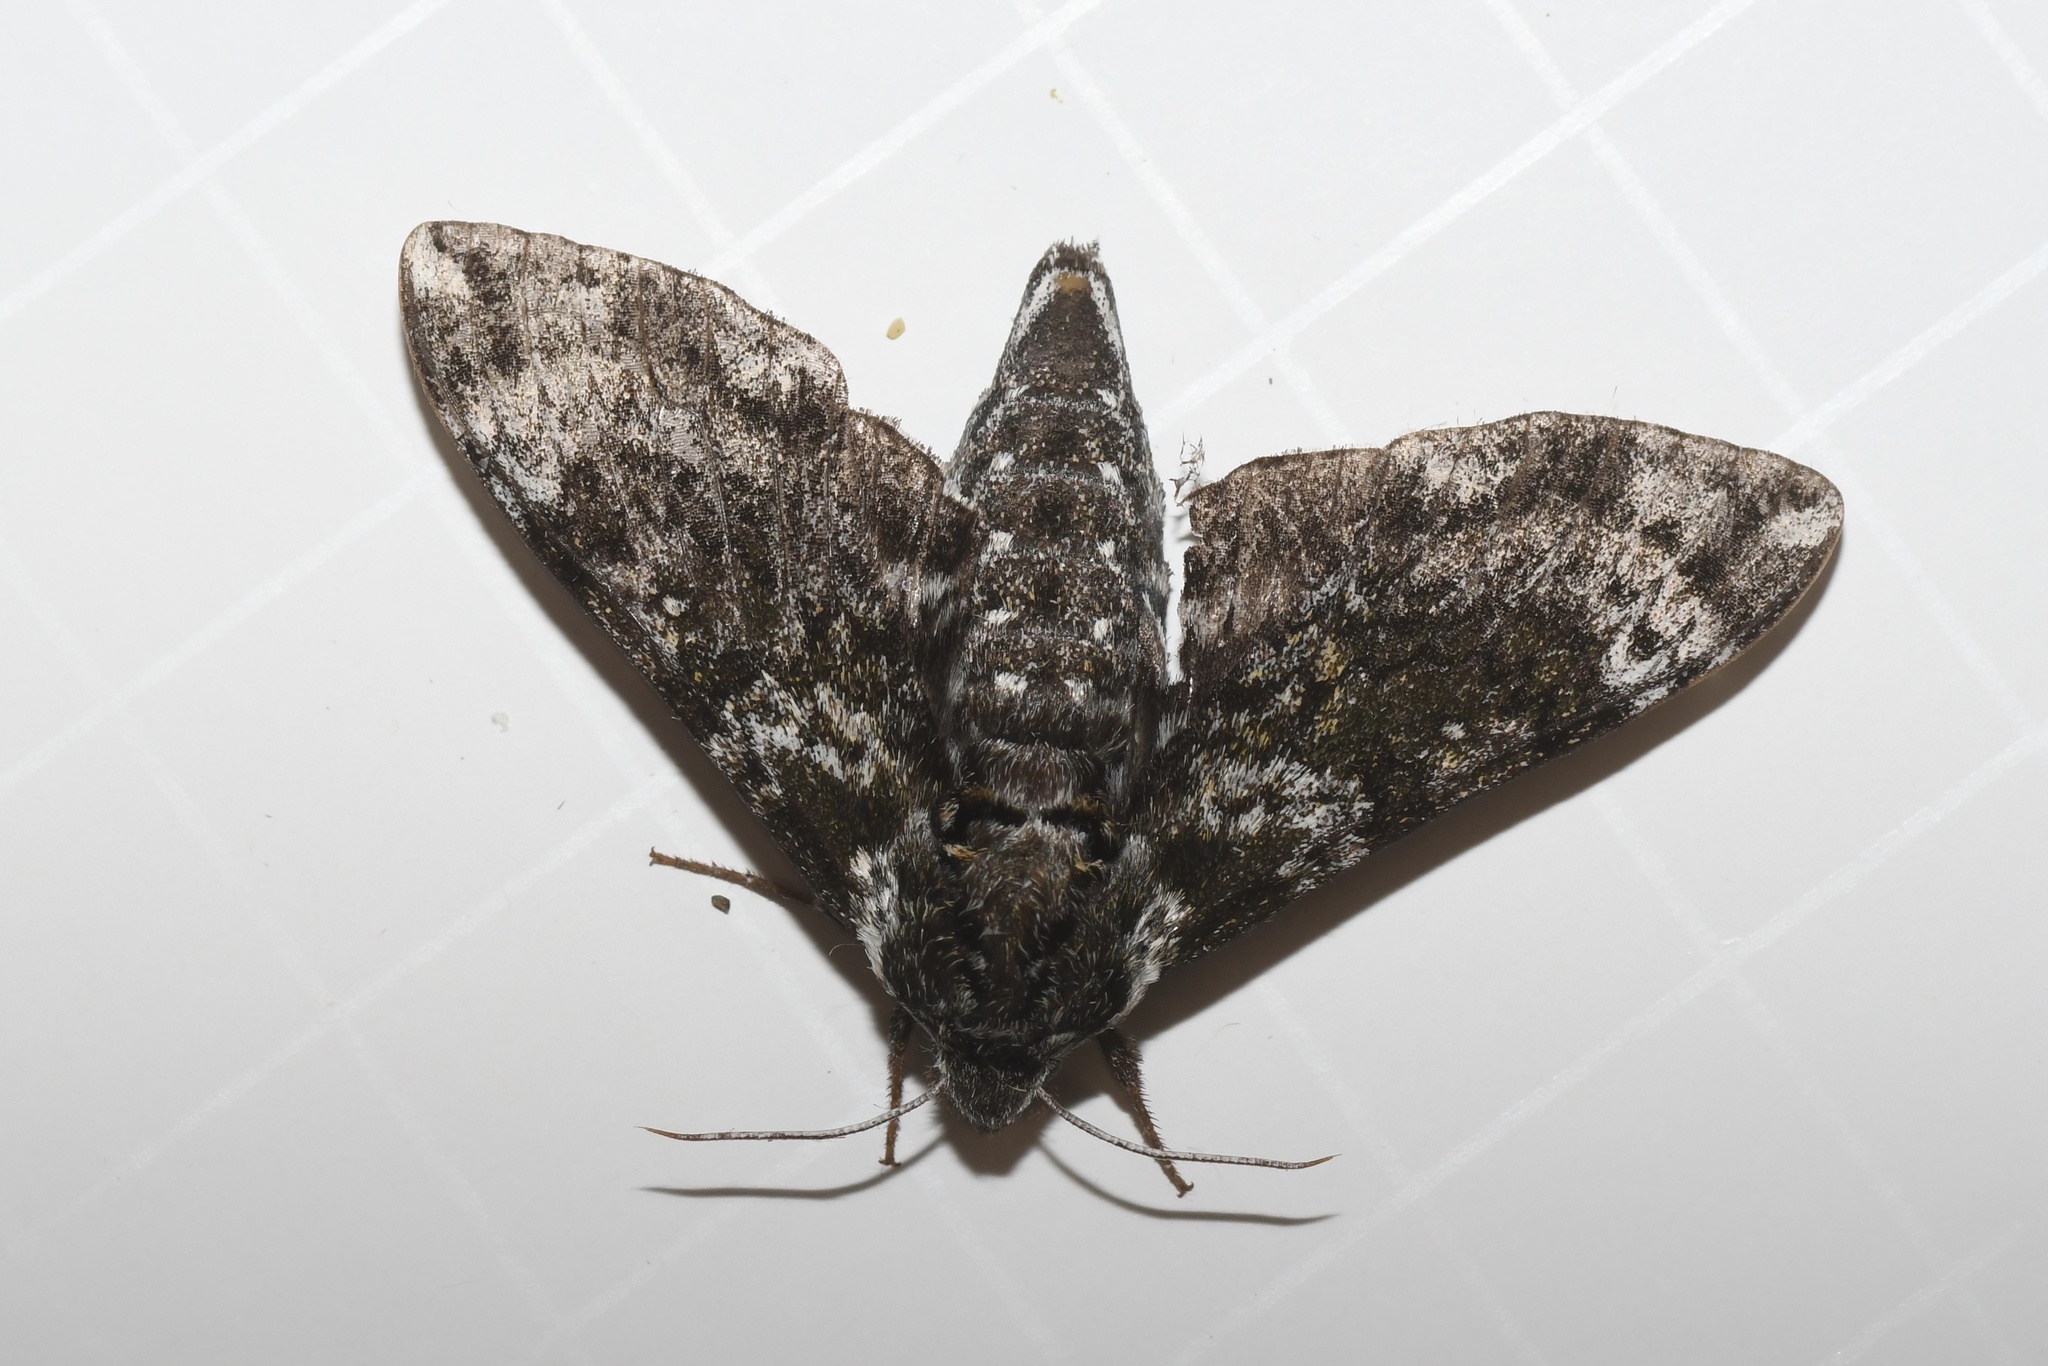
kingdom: Animalia
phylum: Arthropoda
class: Insecta
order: Lepidoptera
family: Sphingidae
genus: Dolba
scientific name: Dolba hyloeus
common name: Pawpaw sphinx
